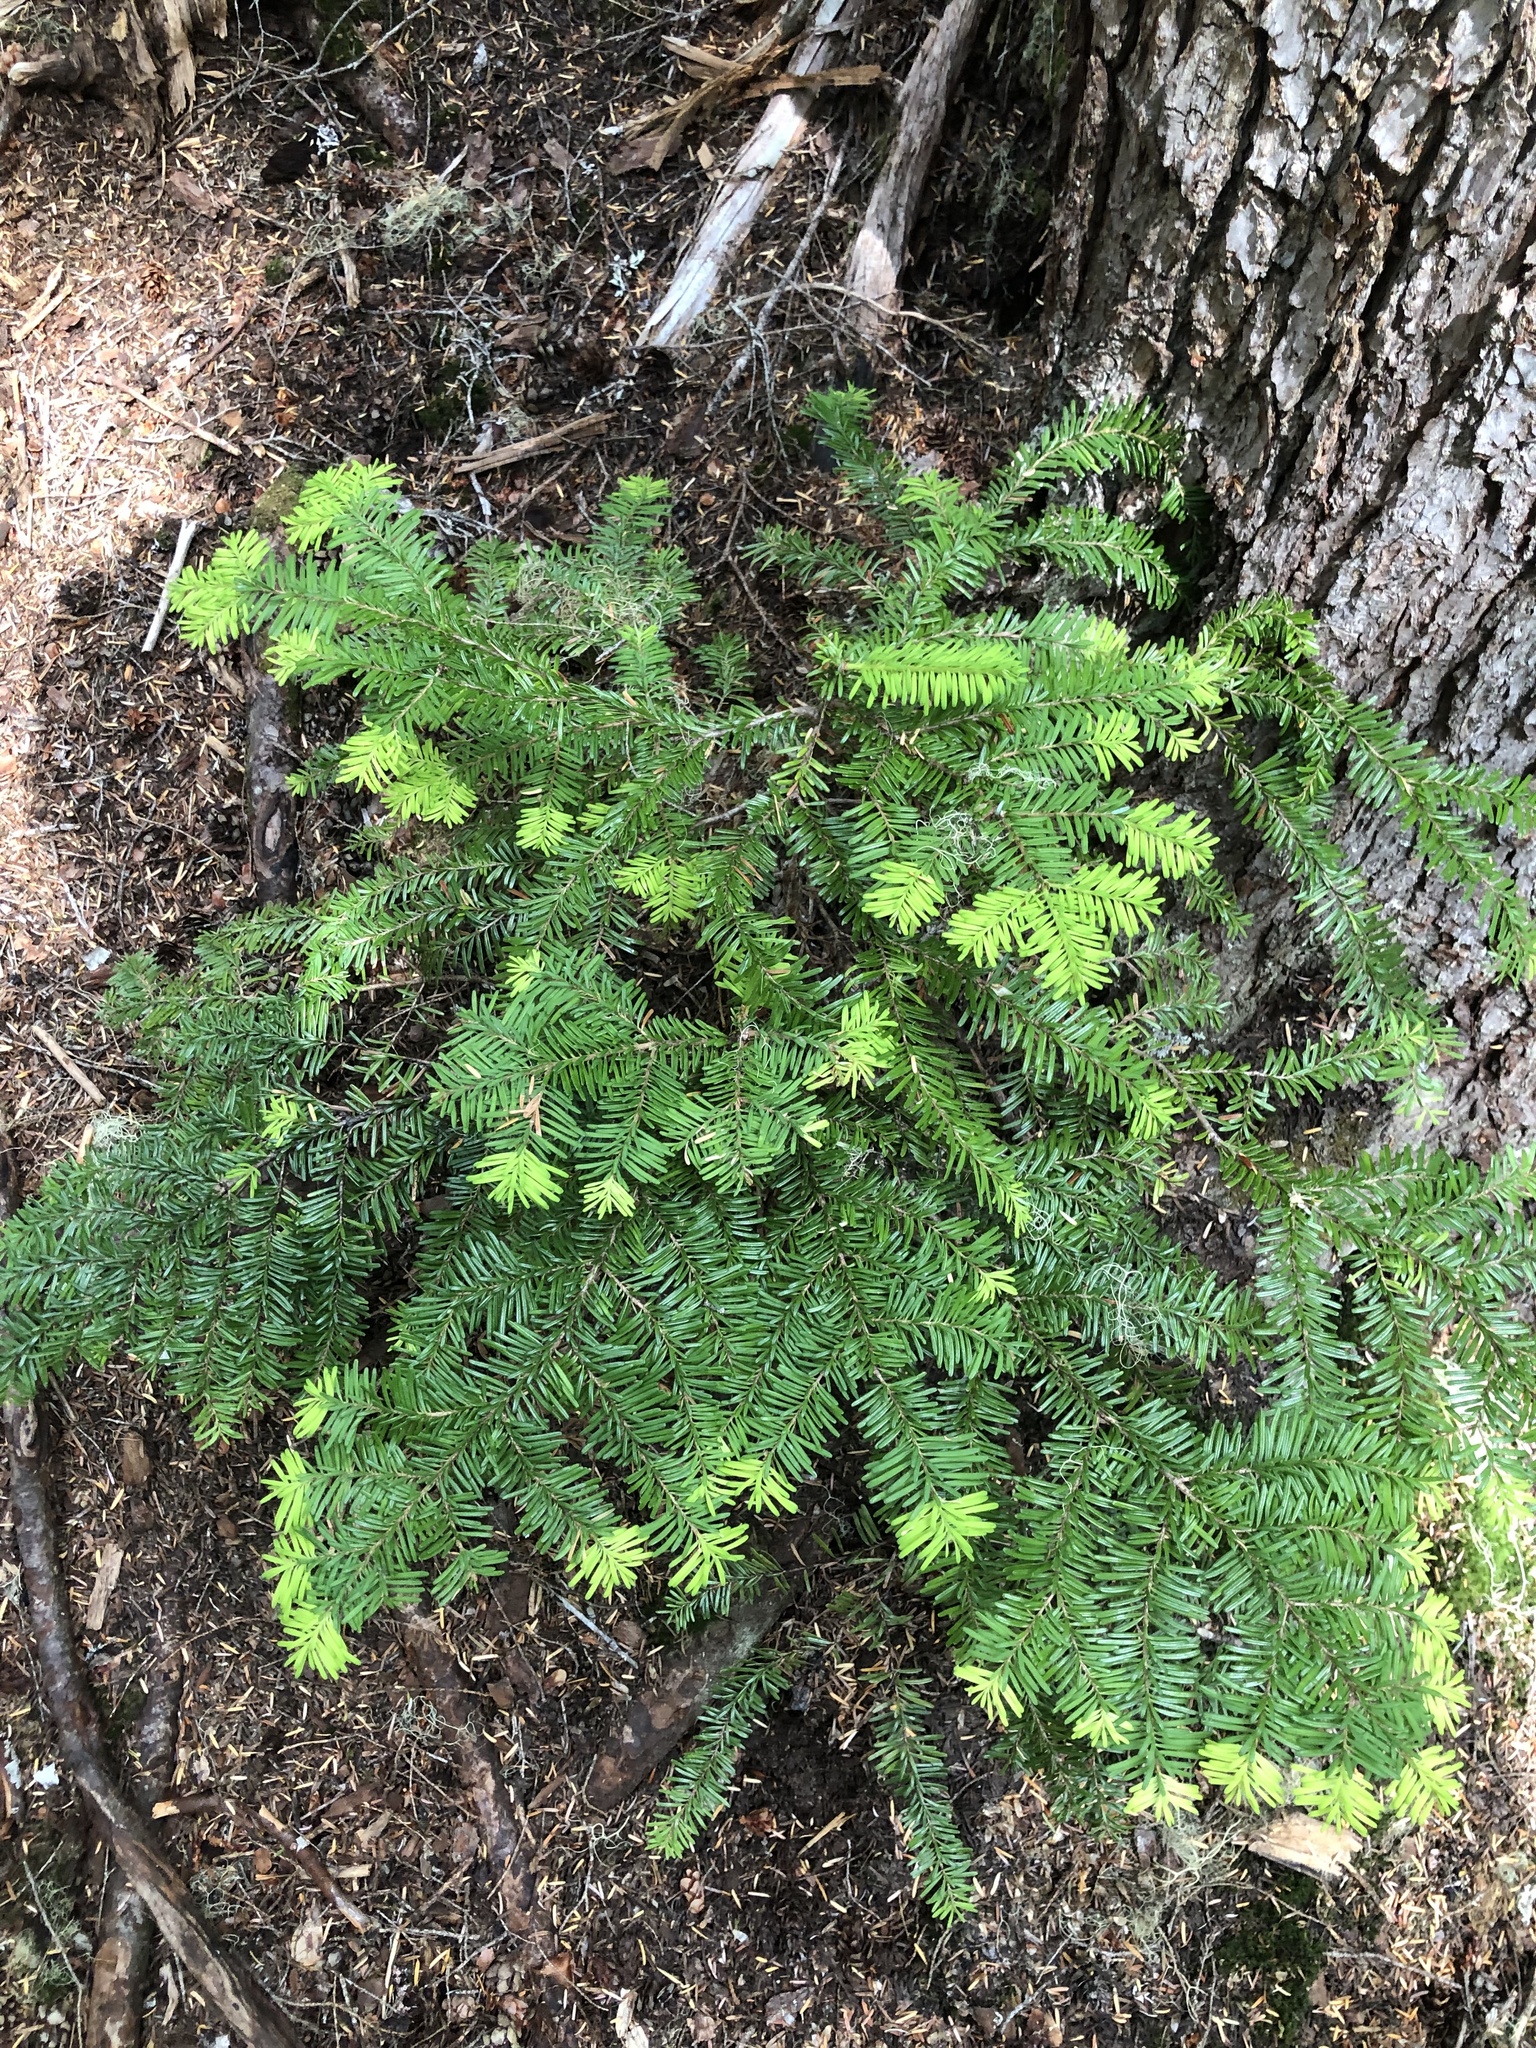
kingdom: Plantae
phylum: Tracheophyta
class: Pinopsida
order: Pinales
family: Pinaceae
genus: Abies
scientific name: Abies amabilis
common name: Pacific silver fir
